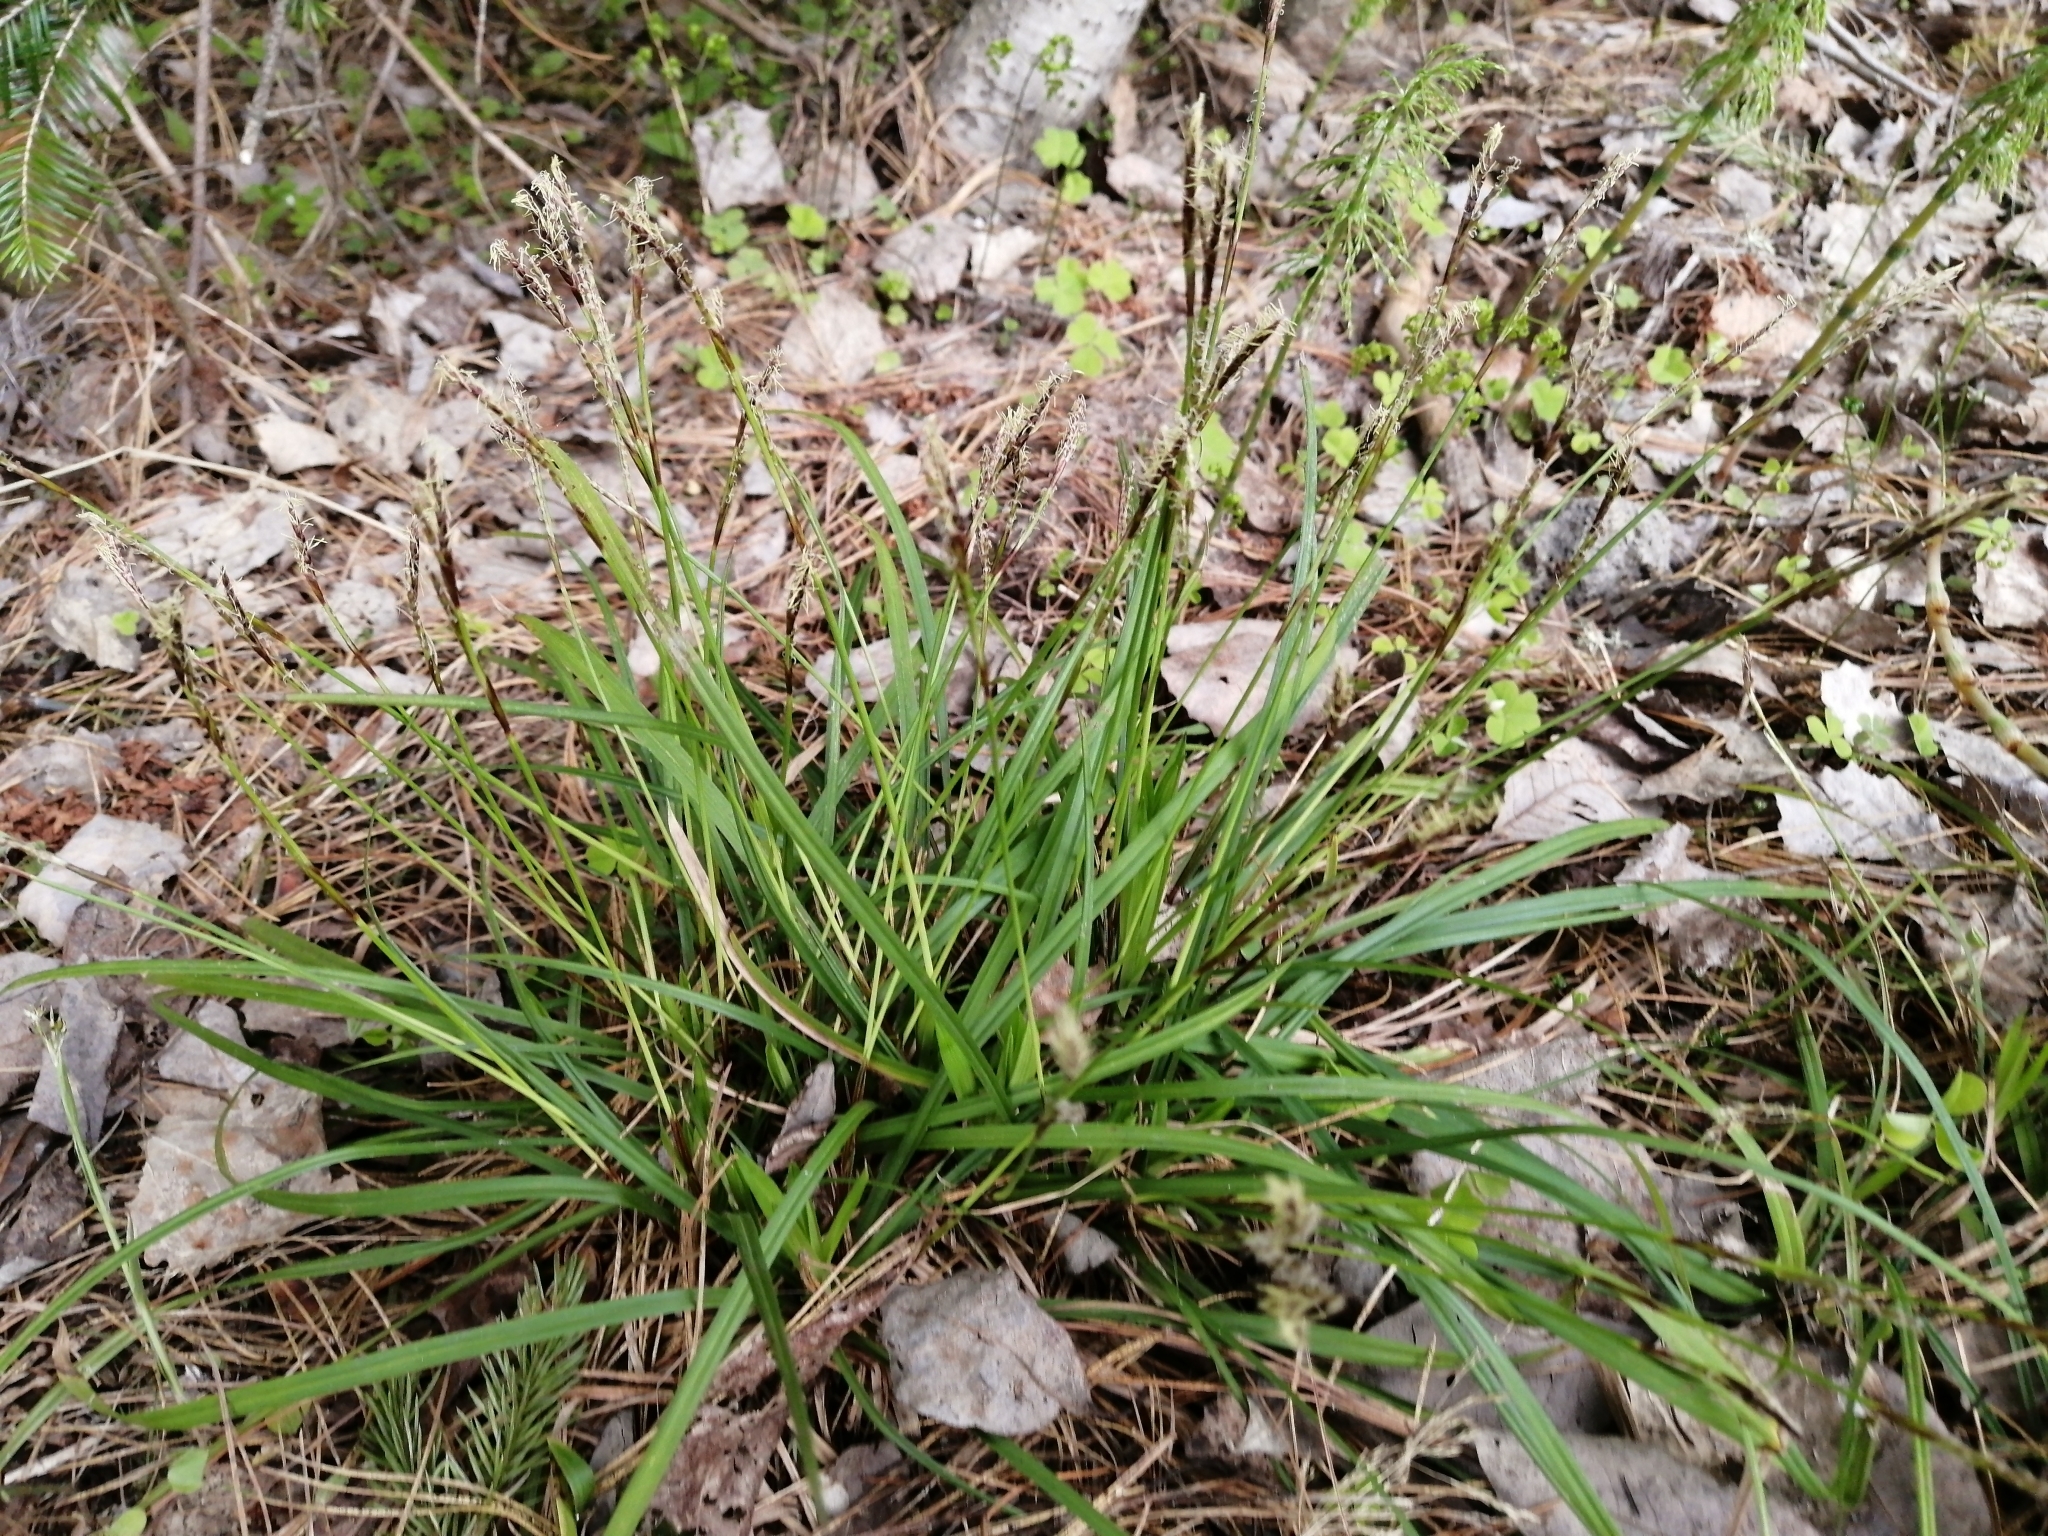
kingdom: Plantae
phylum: Tracheophyta
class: Liliopsida
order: Poales
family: Cyperaceae
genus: Carex
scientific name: Carex digitata
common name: Fingered sedge
